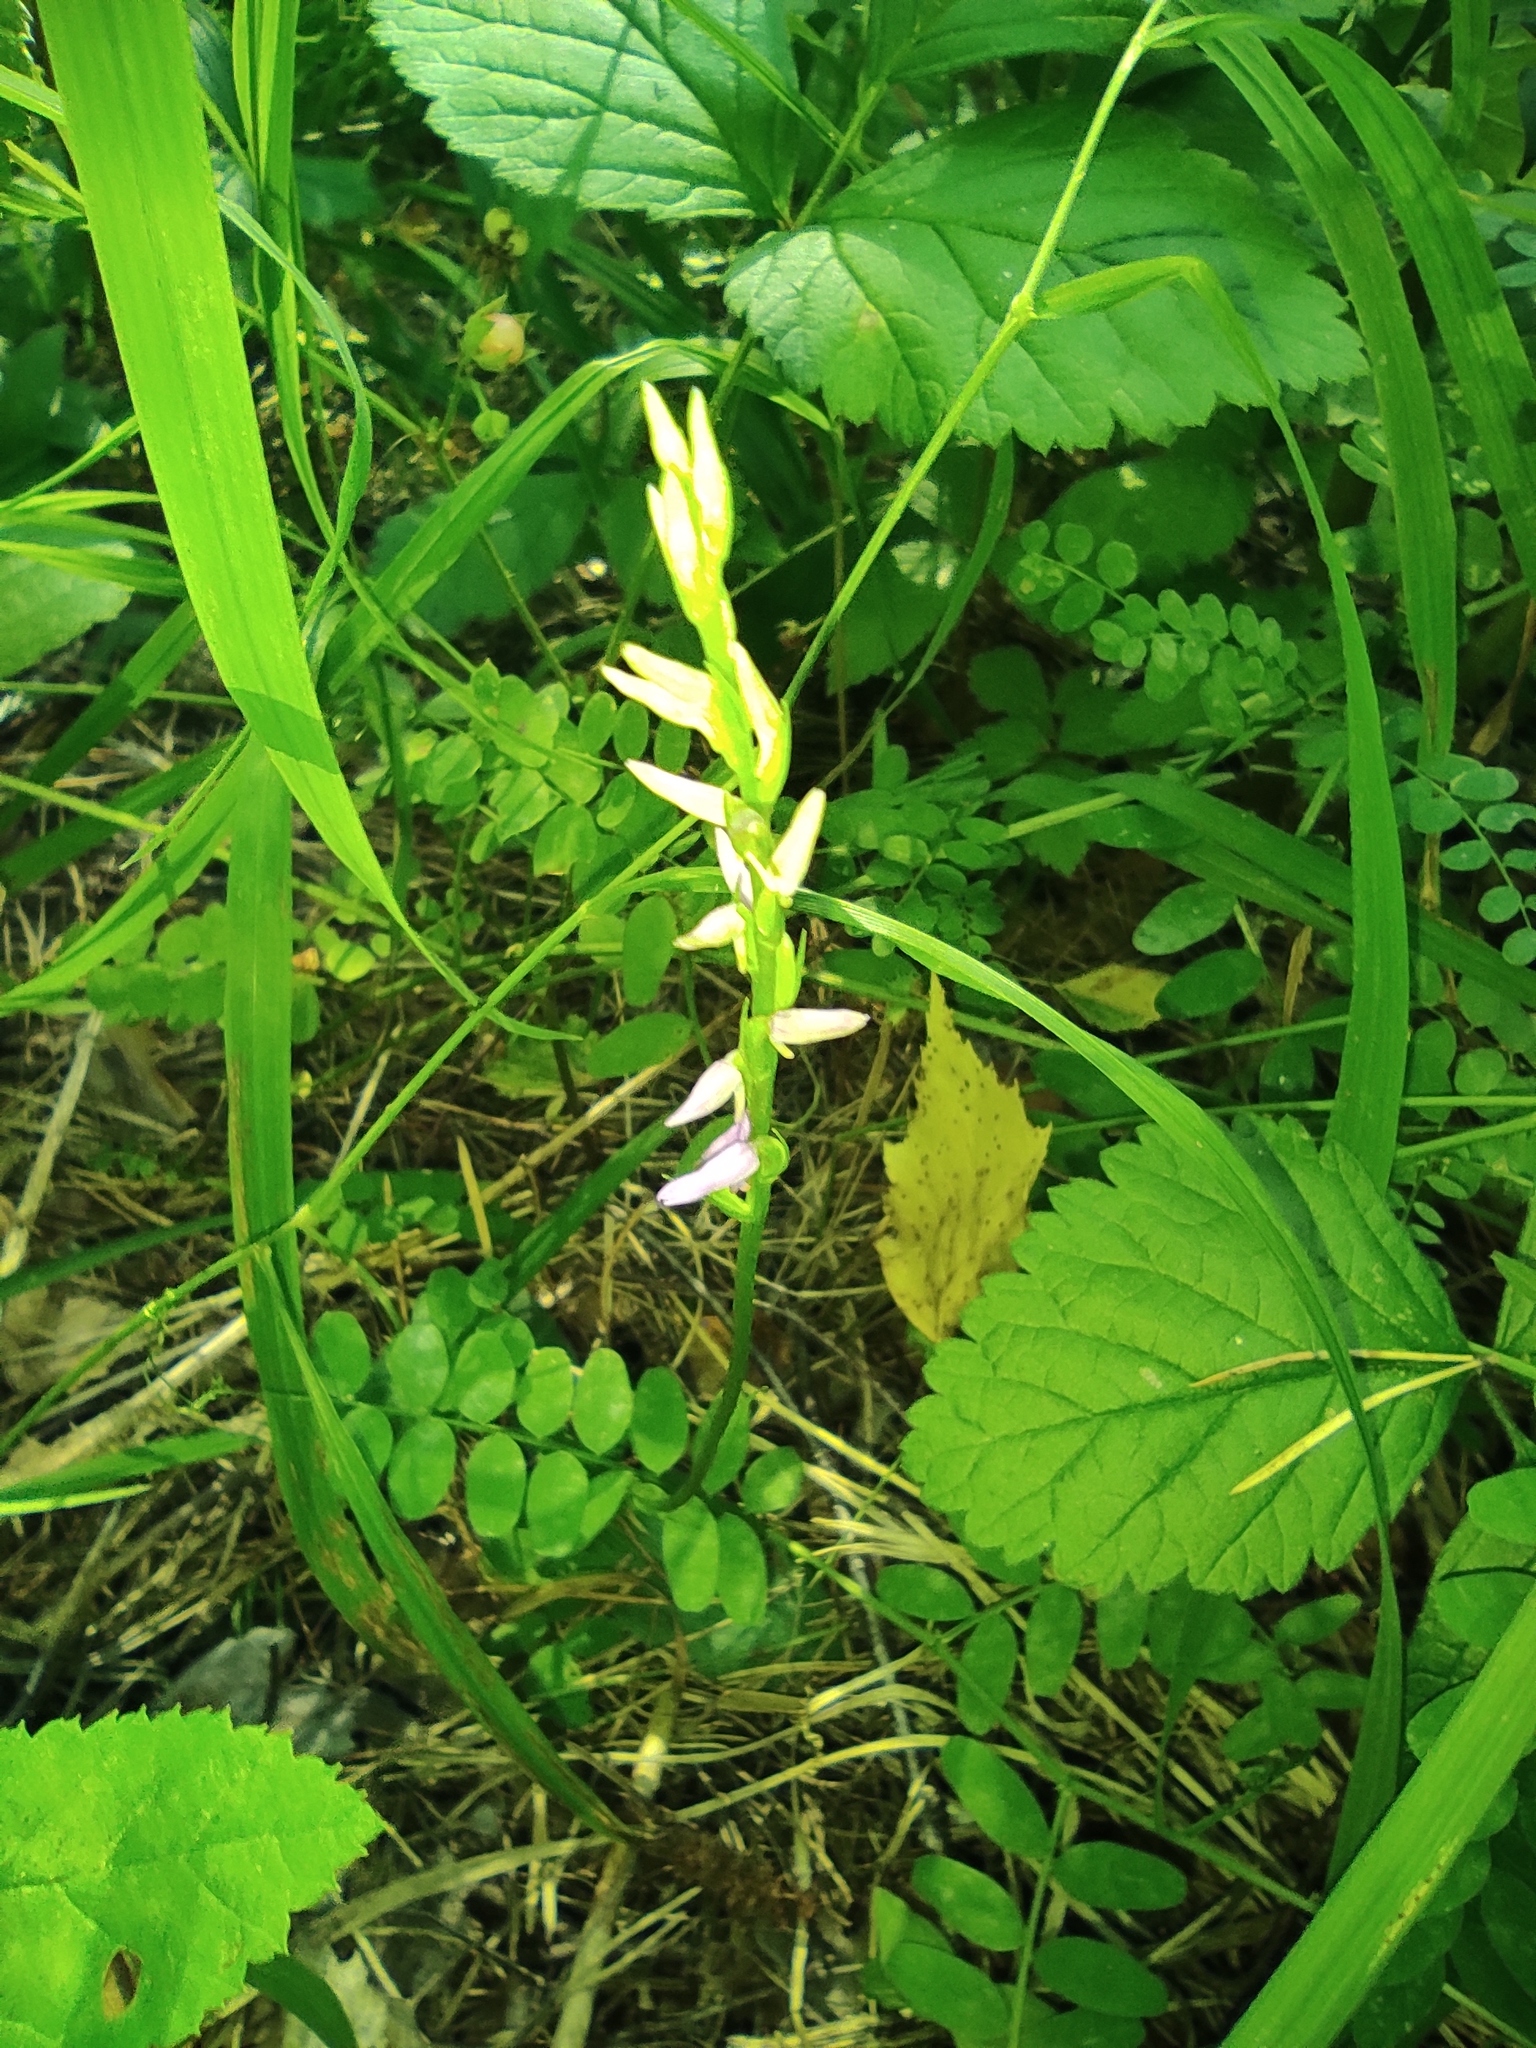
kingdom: Plantae
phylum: Tracheophyta
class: Liliopsida
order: Asparagales
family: Orchidaceae
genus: Hemipilia
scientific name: Hemipilia cucullata
